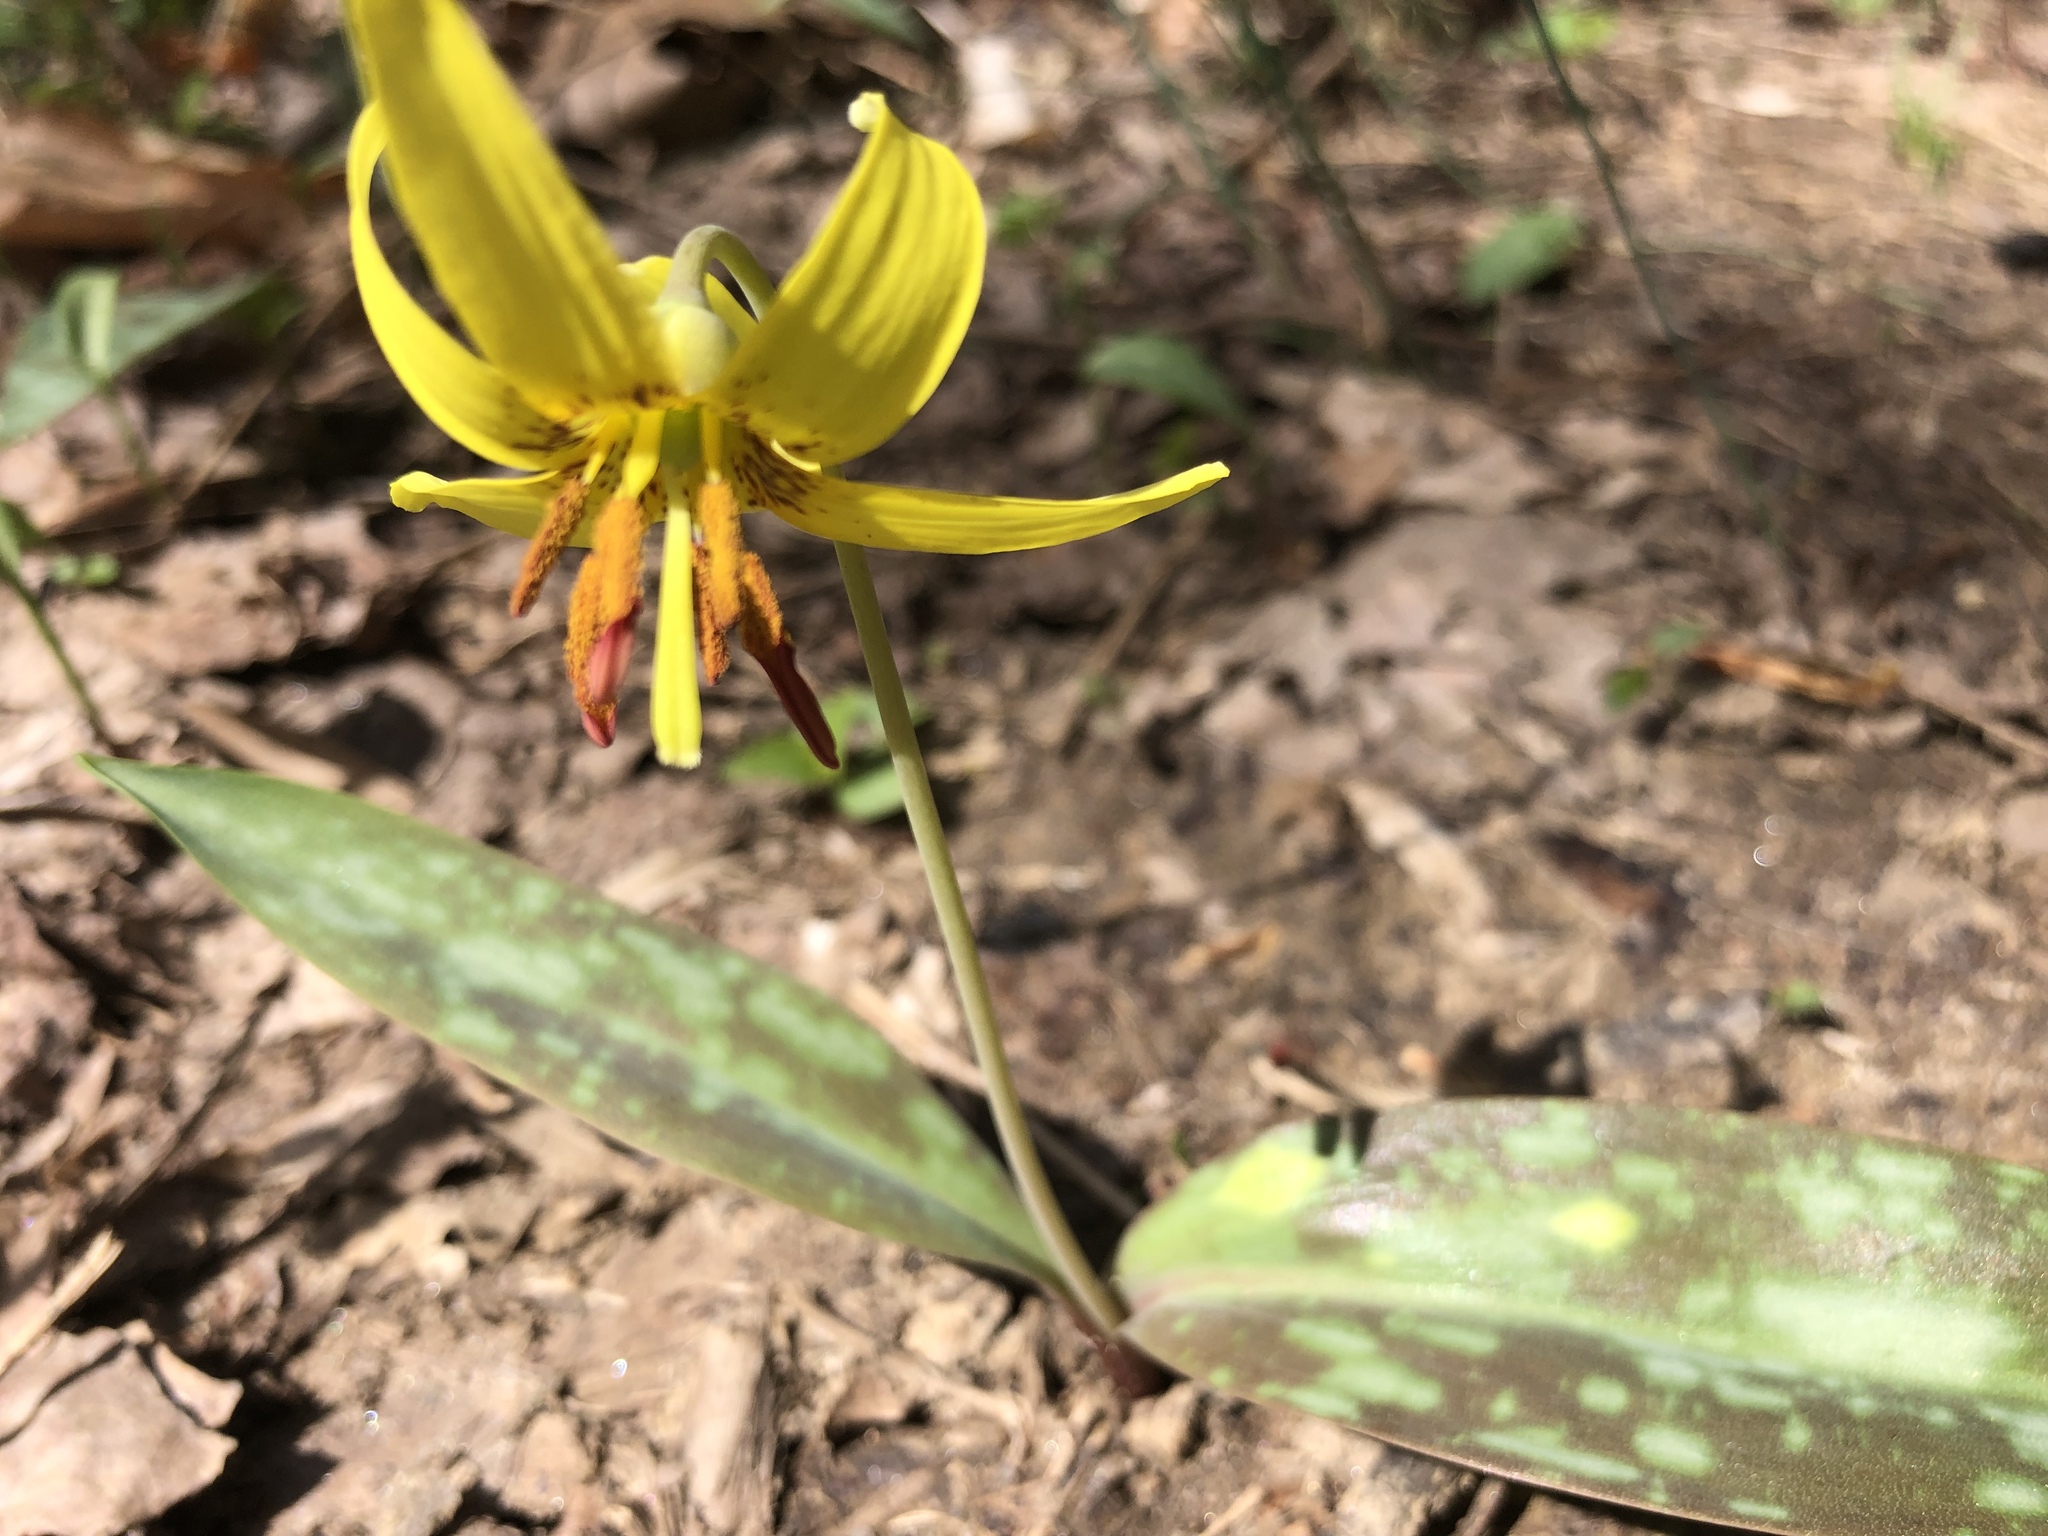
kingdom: Plantae
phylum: Tracheophyta
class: Liliopsida
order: Liliales
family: Liliaceae
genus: Erythronium
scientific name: Erythronium americanum
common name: Yellow adder's-tongue
